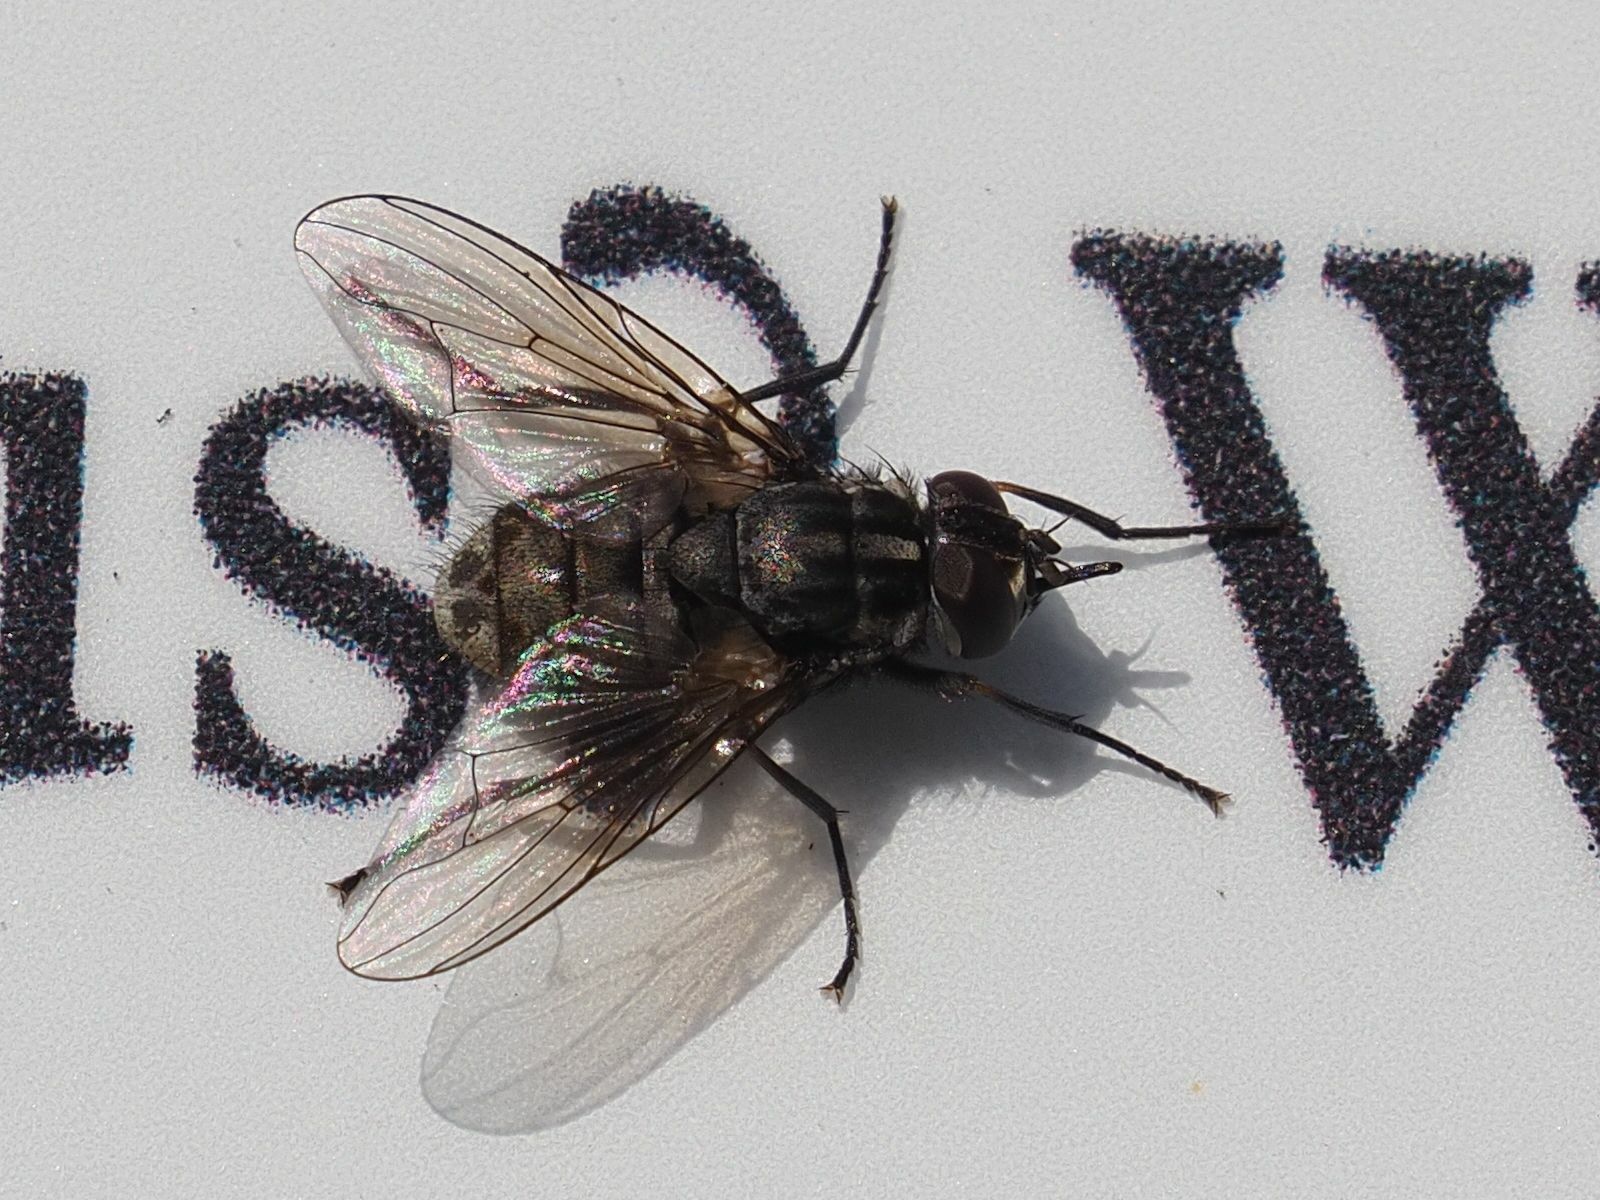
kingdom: Animalia
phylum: Arthropoda
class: Insecta
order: Diptera
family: Muscidae
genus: Stomoxys
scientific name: Stomoxys calcitrans
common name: Stable fly
